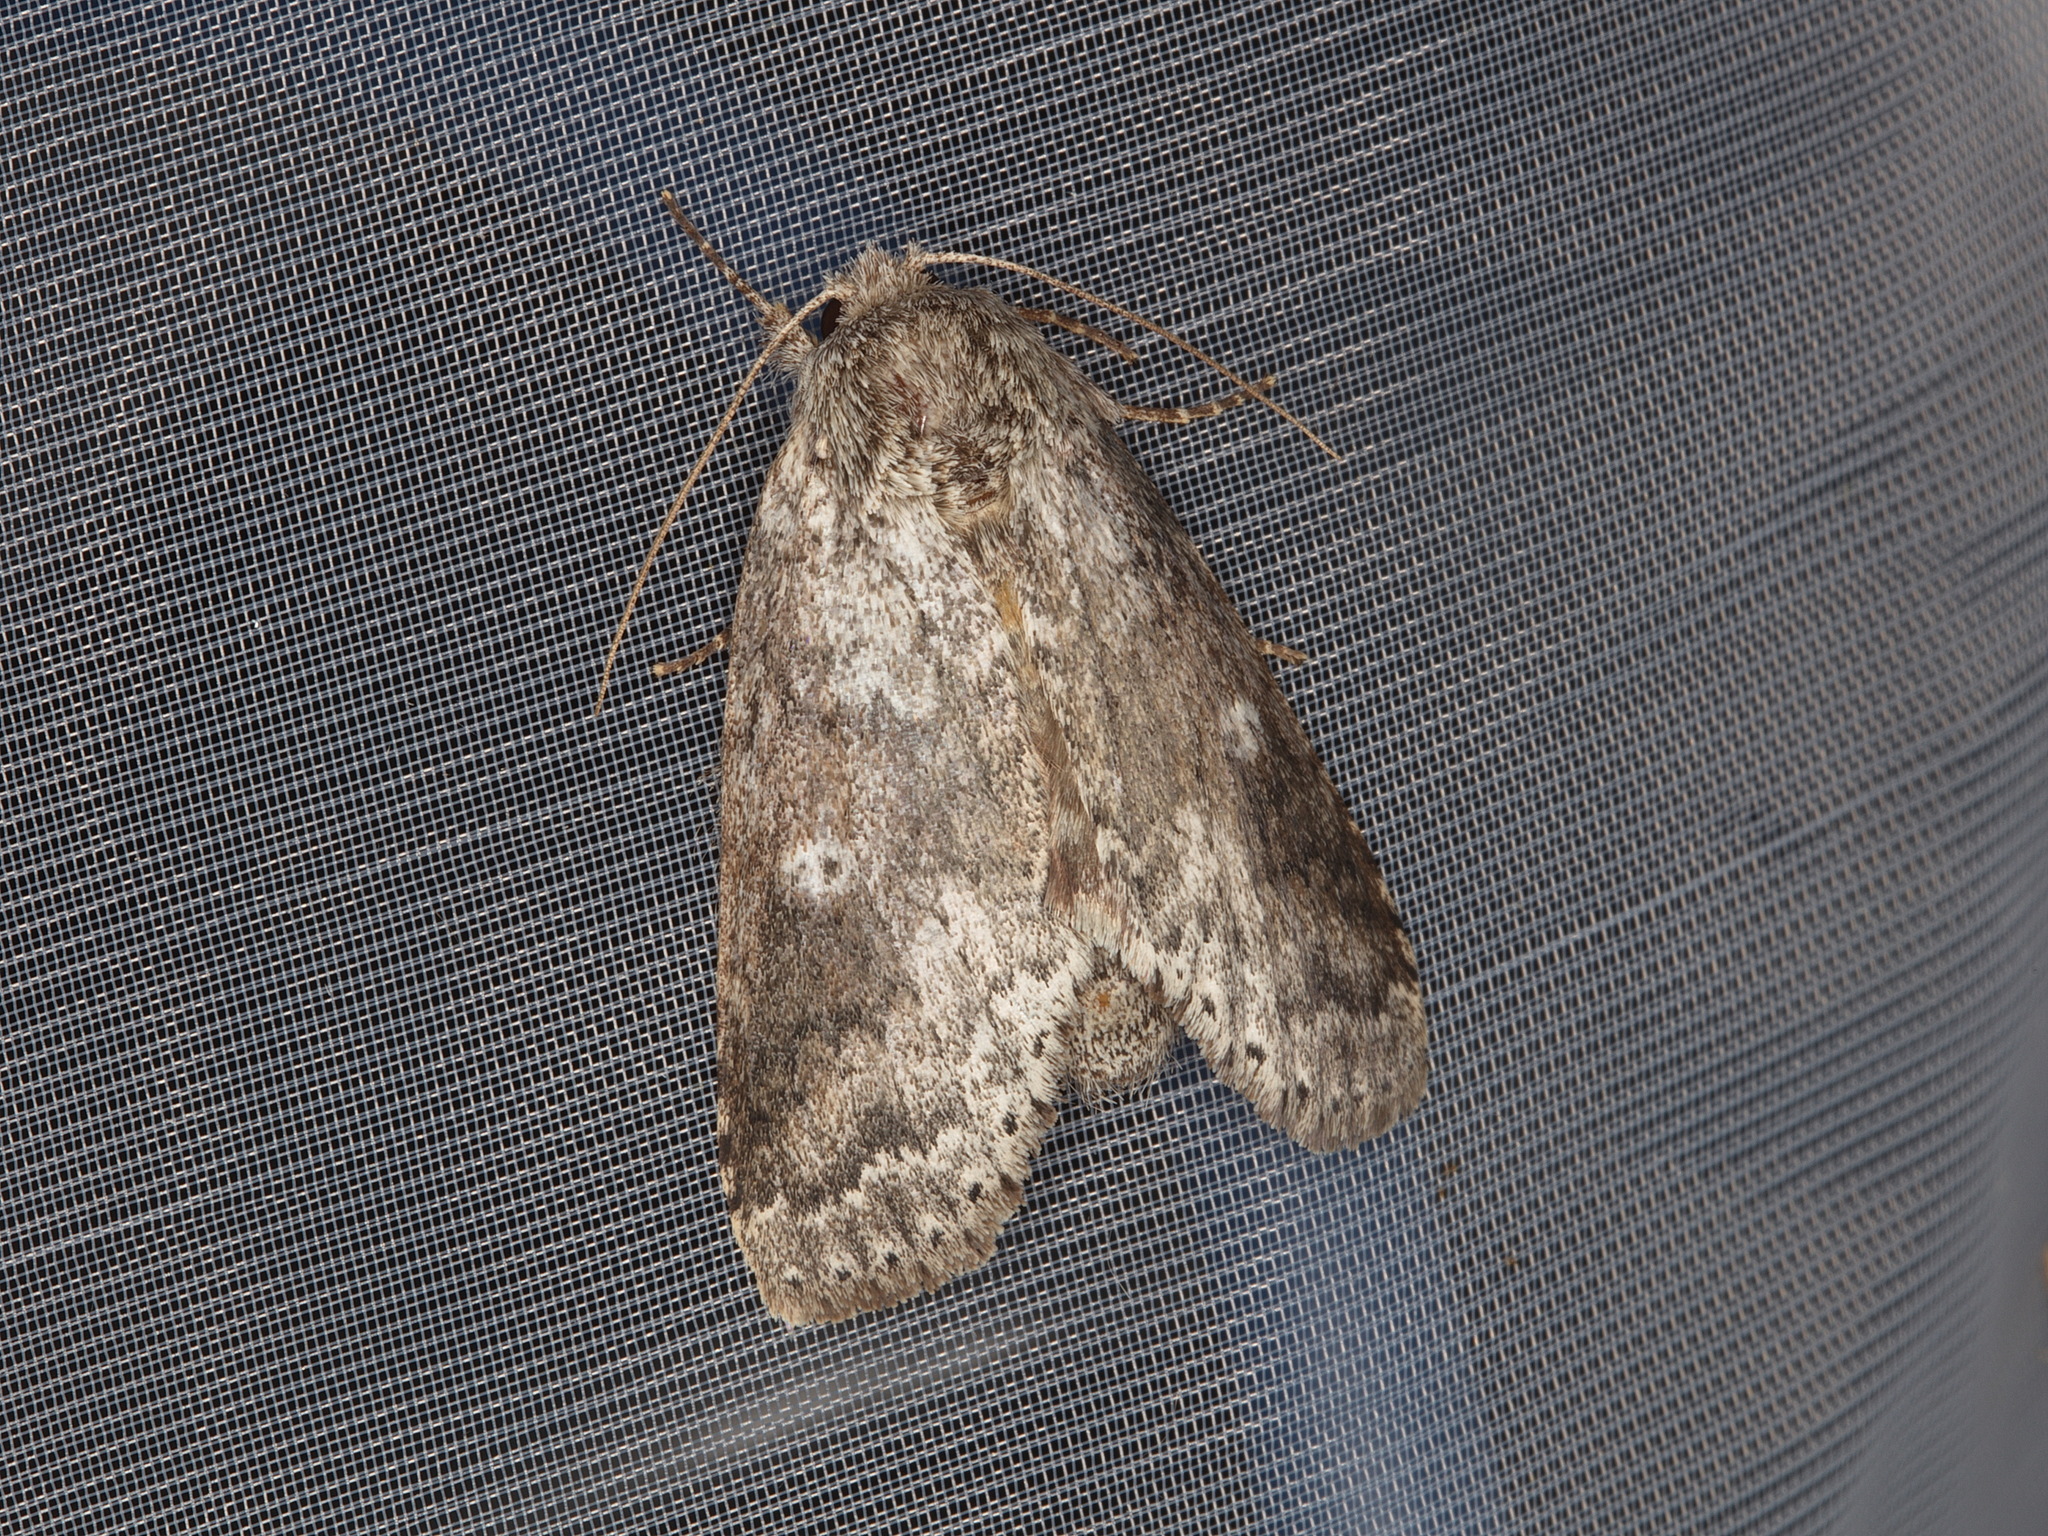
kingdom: Animalia
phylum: Arthropoda
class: Insecta
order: Lepidoptera
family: Notodontidae
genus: Lochmaeus
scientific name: Lochmaeus manteo
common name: Variable oakleaf caterpillar moth
